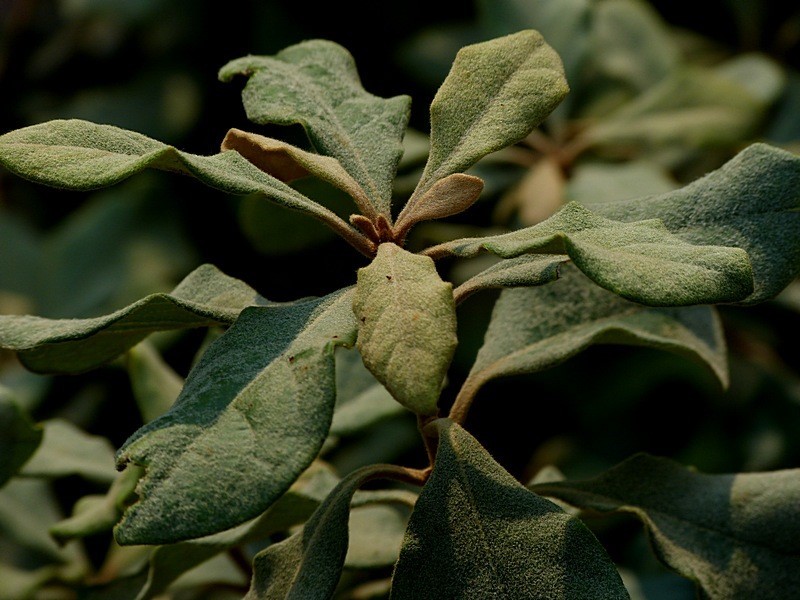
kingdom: Plantae
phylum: Tracheophyta
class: Magnoliopsida
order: Apiales
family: Pittosporaceae
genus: Pittosporum
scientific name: Pittosporum revolutum
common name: Brisbane-laurel
